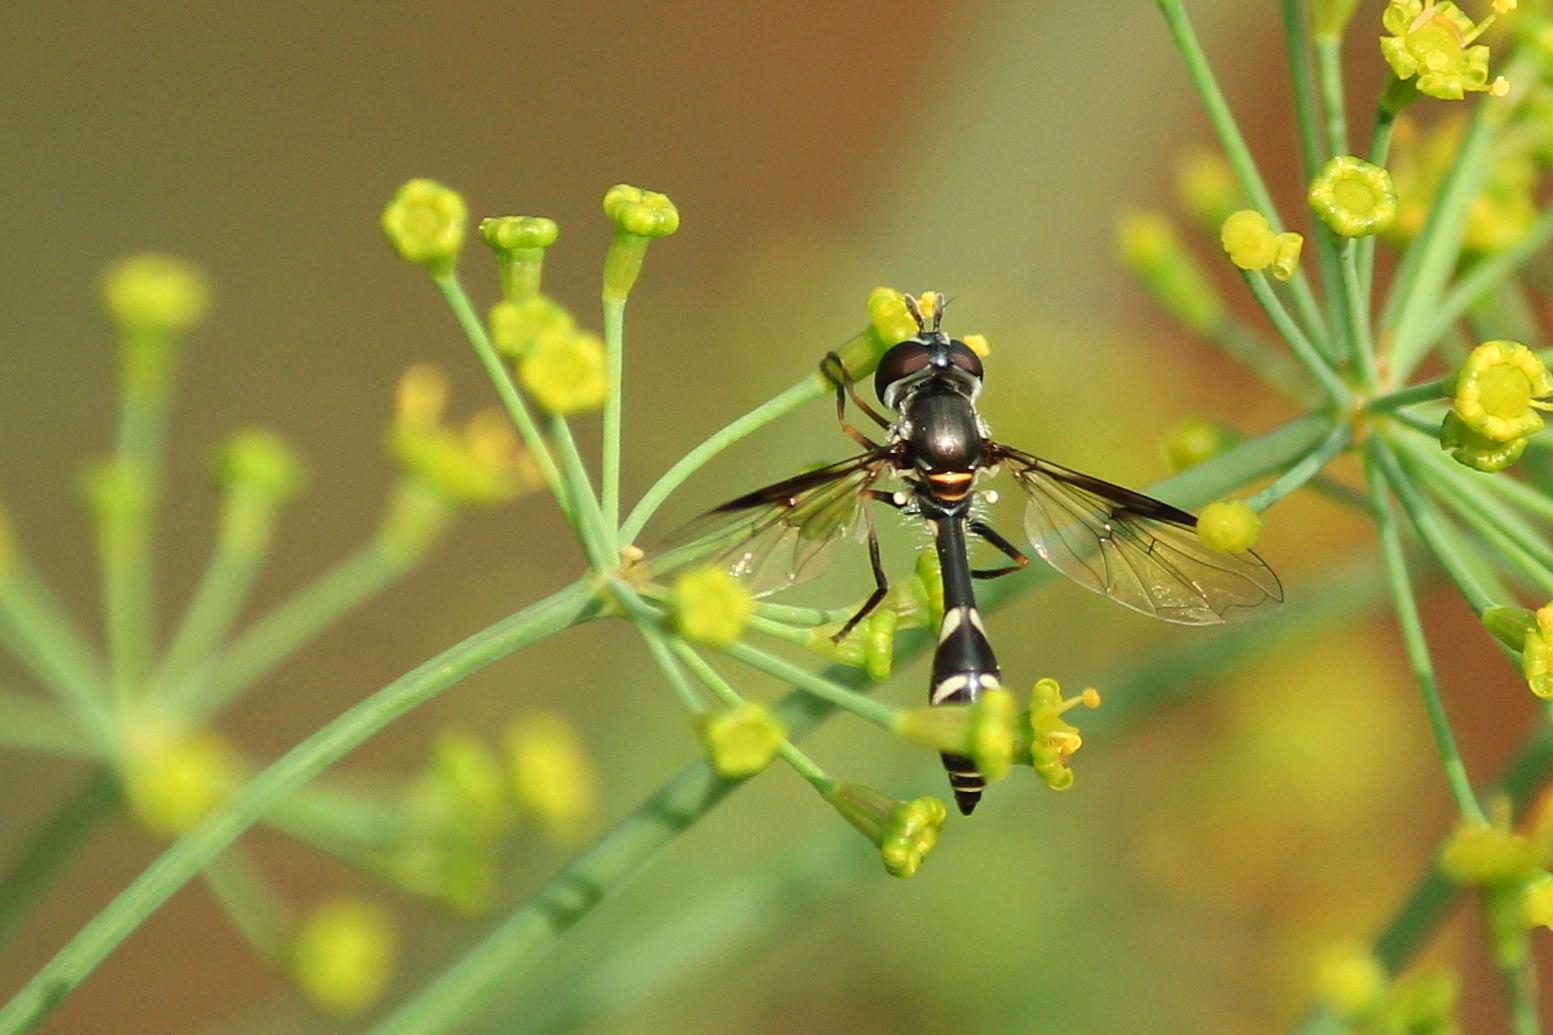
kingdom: Animalia
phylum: Arthropoda
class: Insecta
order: Diptera
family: Syrphidae
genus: Dioprosopa
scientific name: Dioprosopa clavatus
